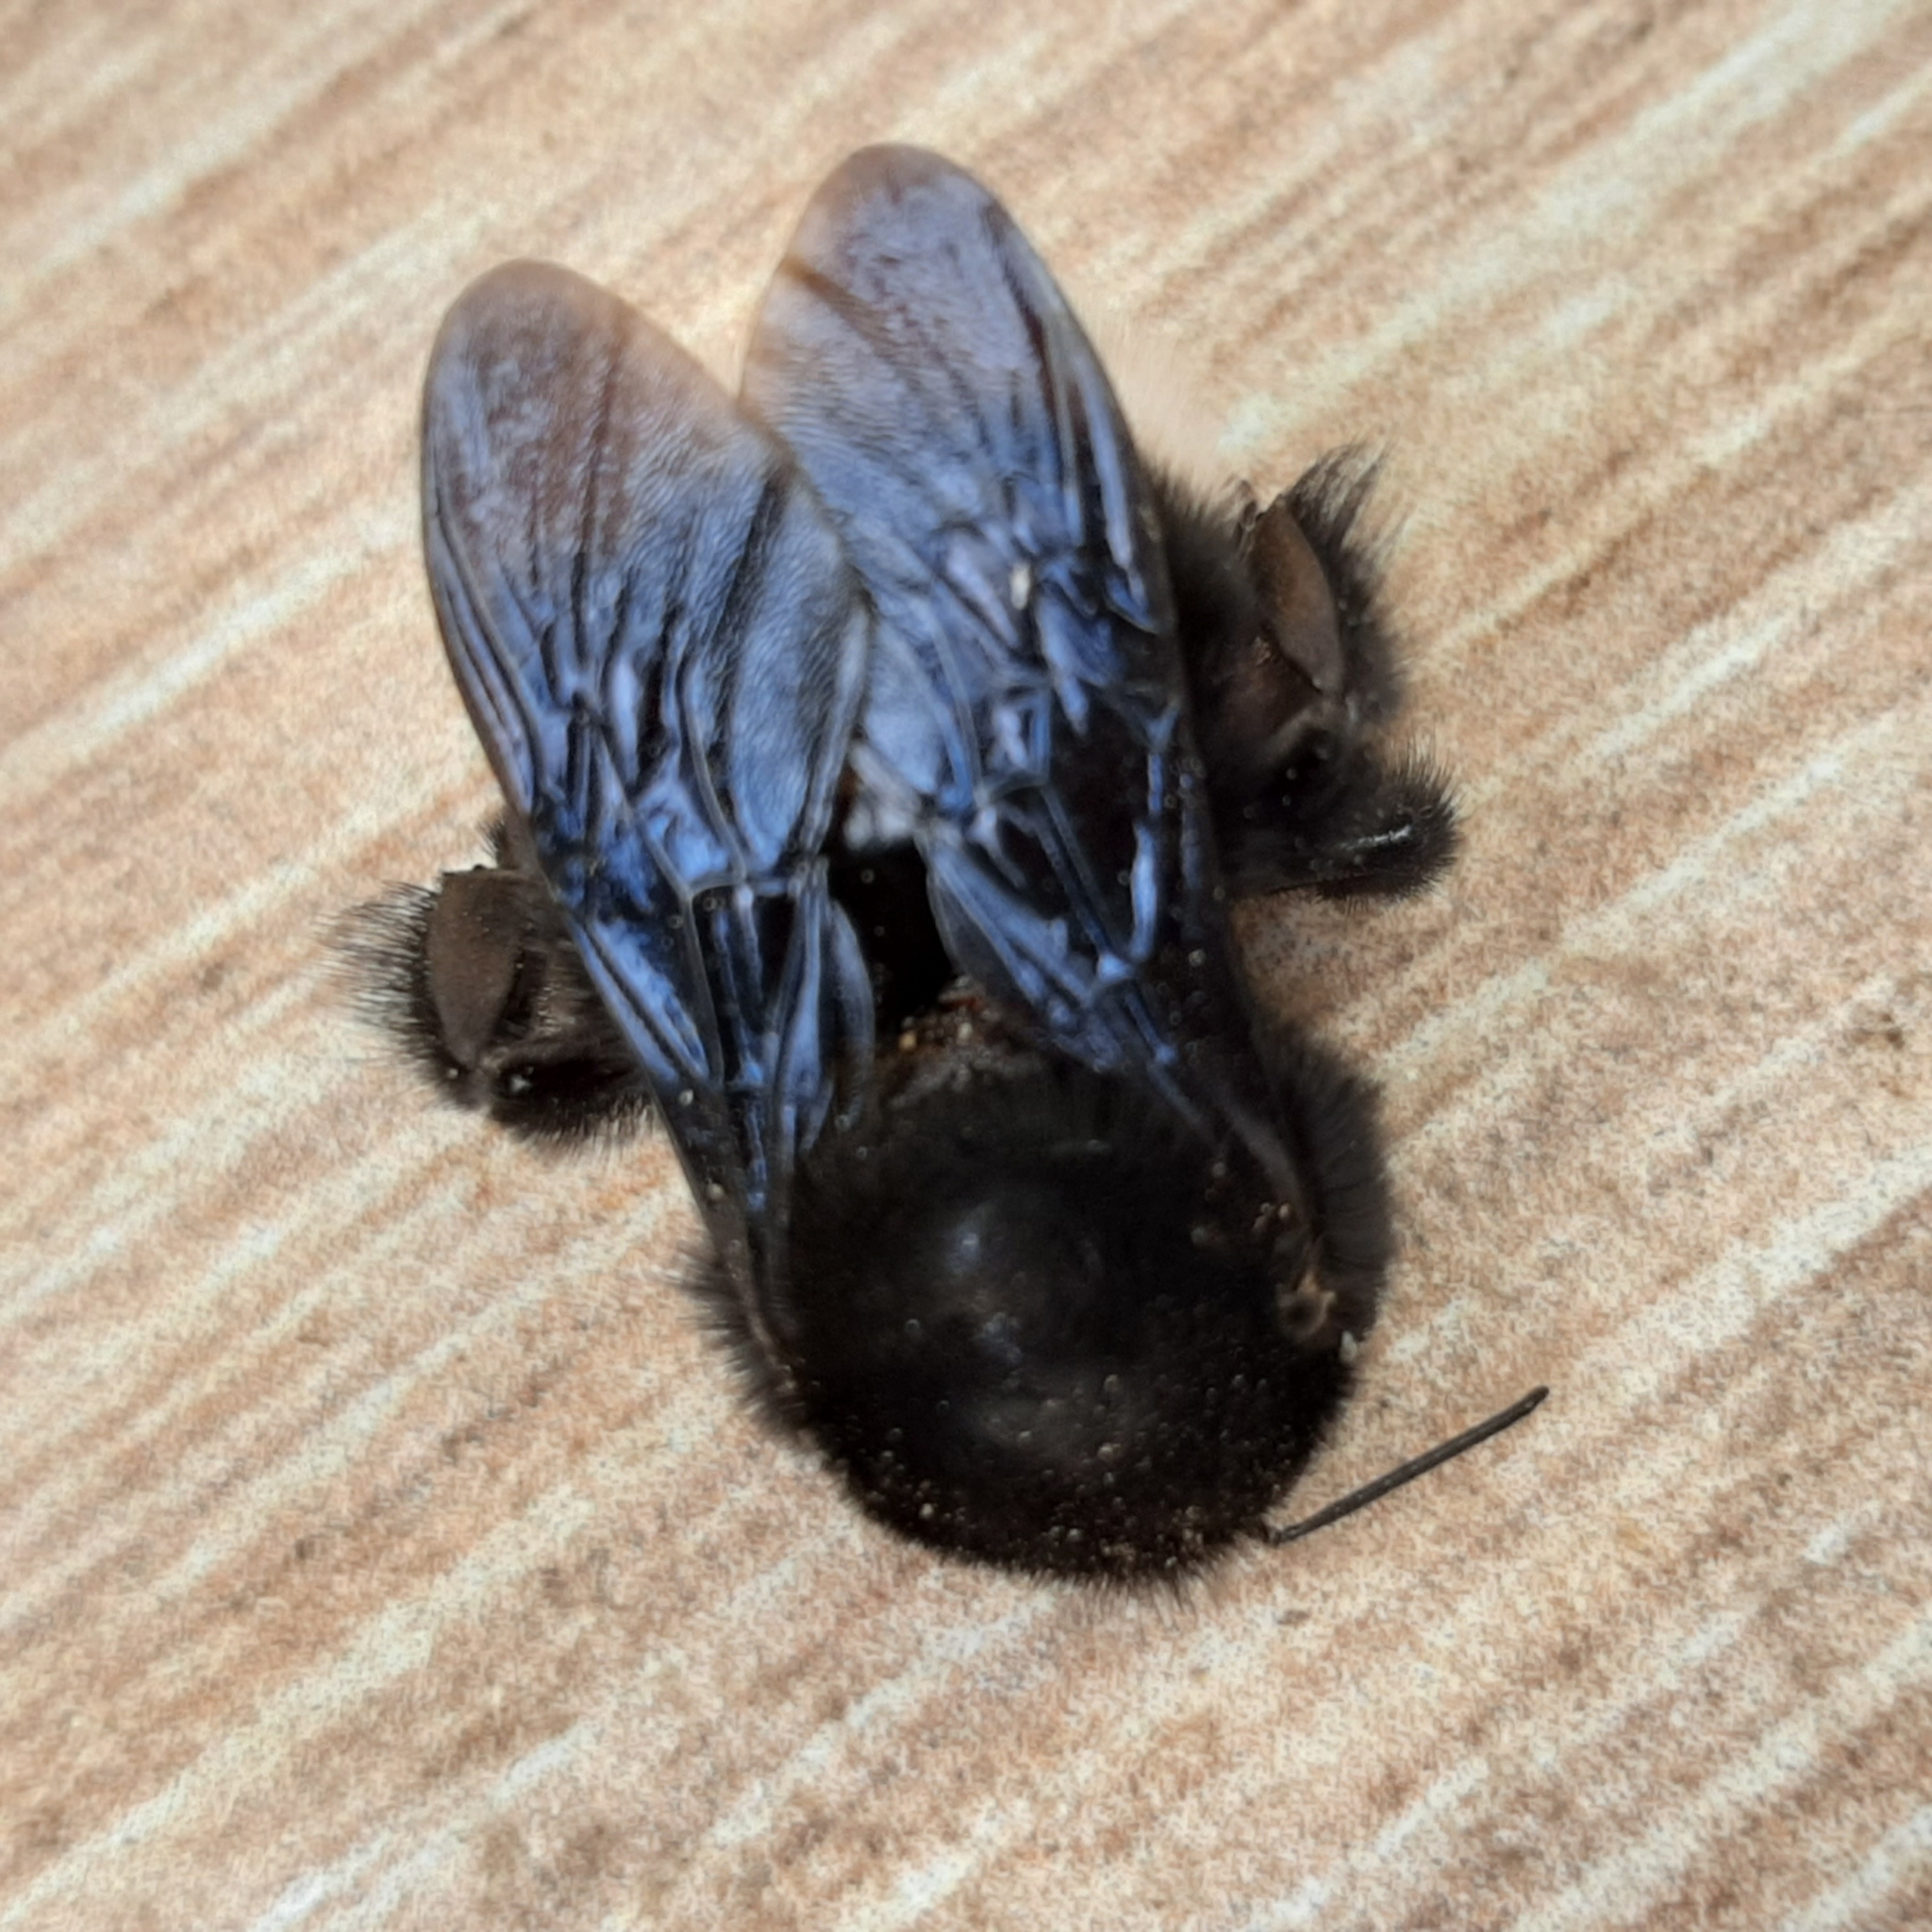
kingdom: Animalia
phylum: Arthropoda
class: Insecta
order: Hymenoptera
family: Apidae
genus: Bombus
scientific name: Bombus volucelloides
